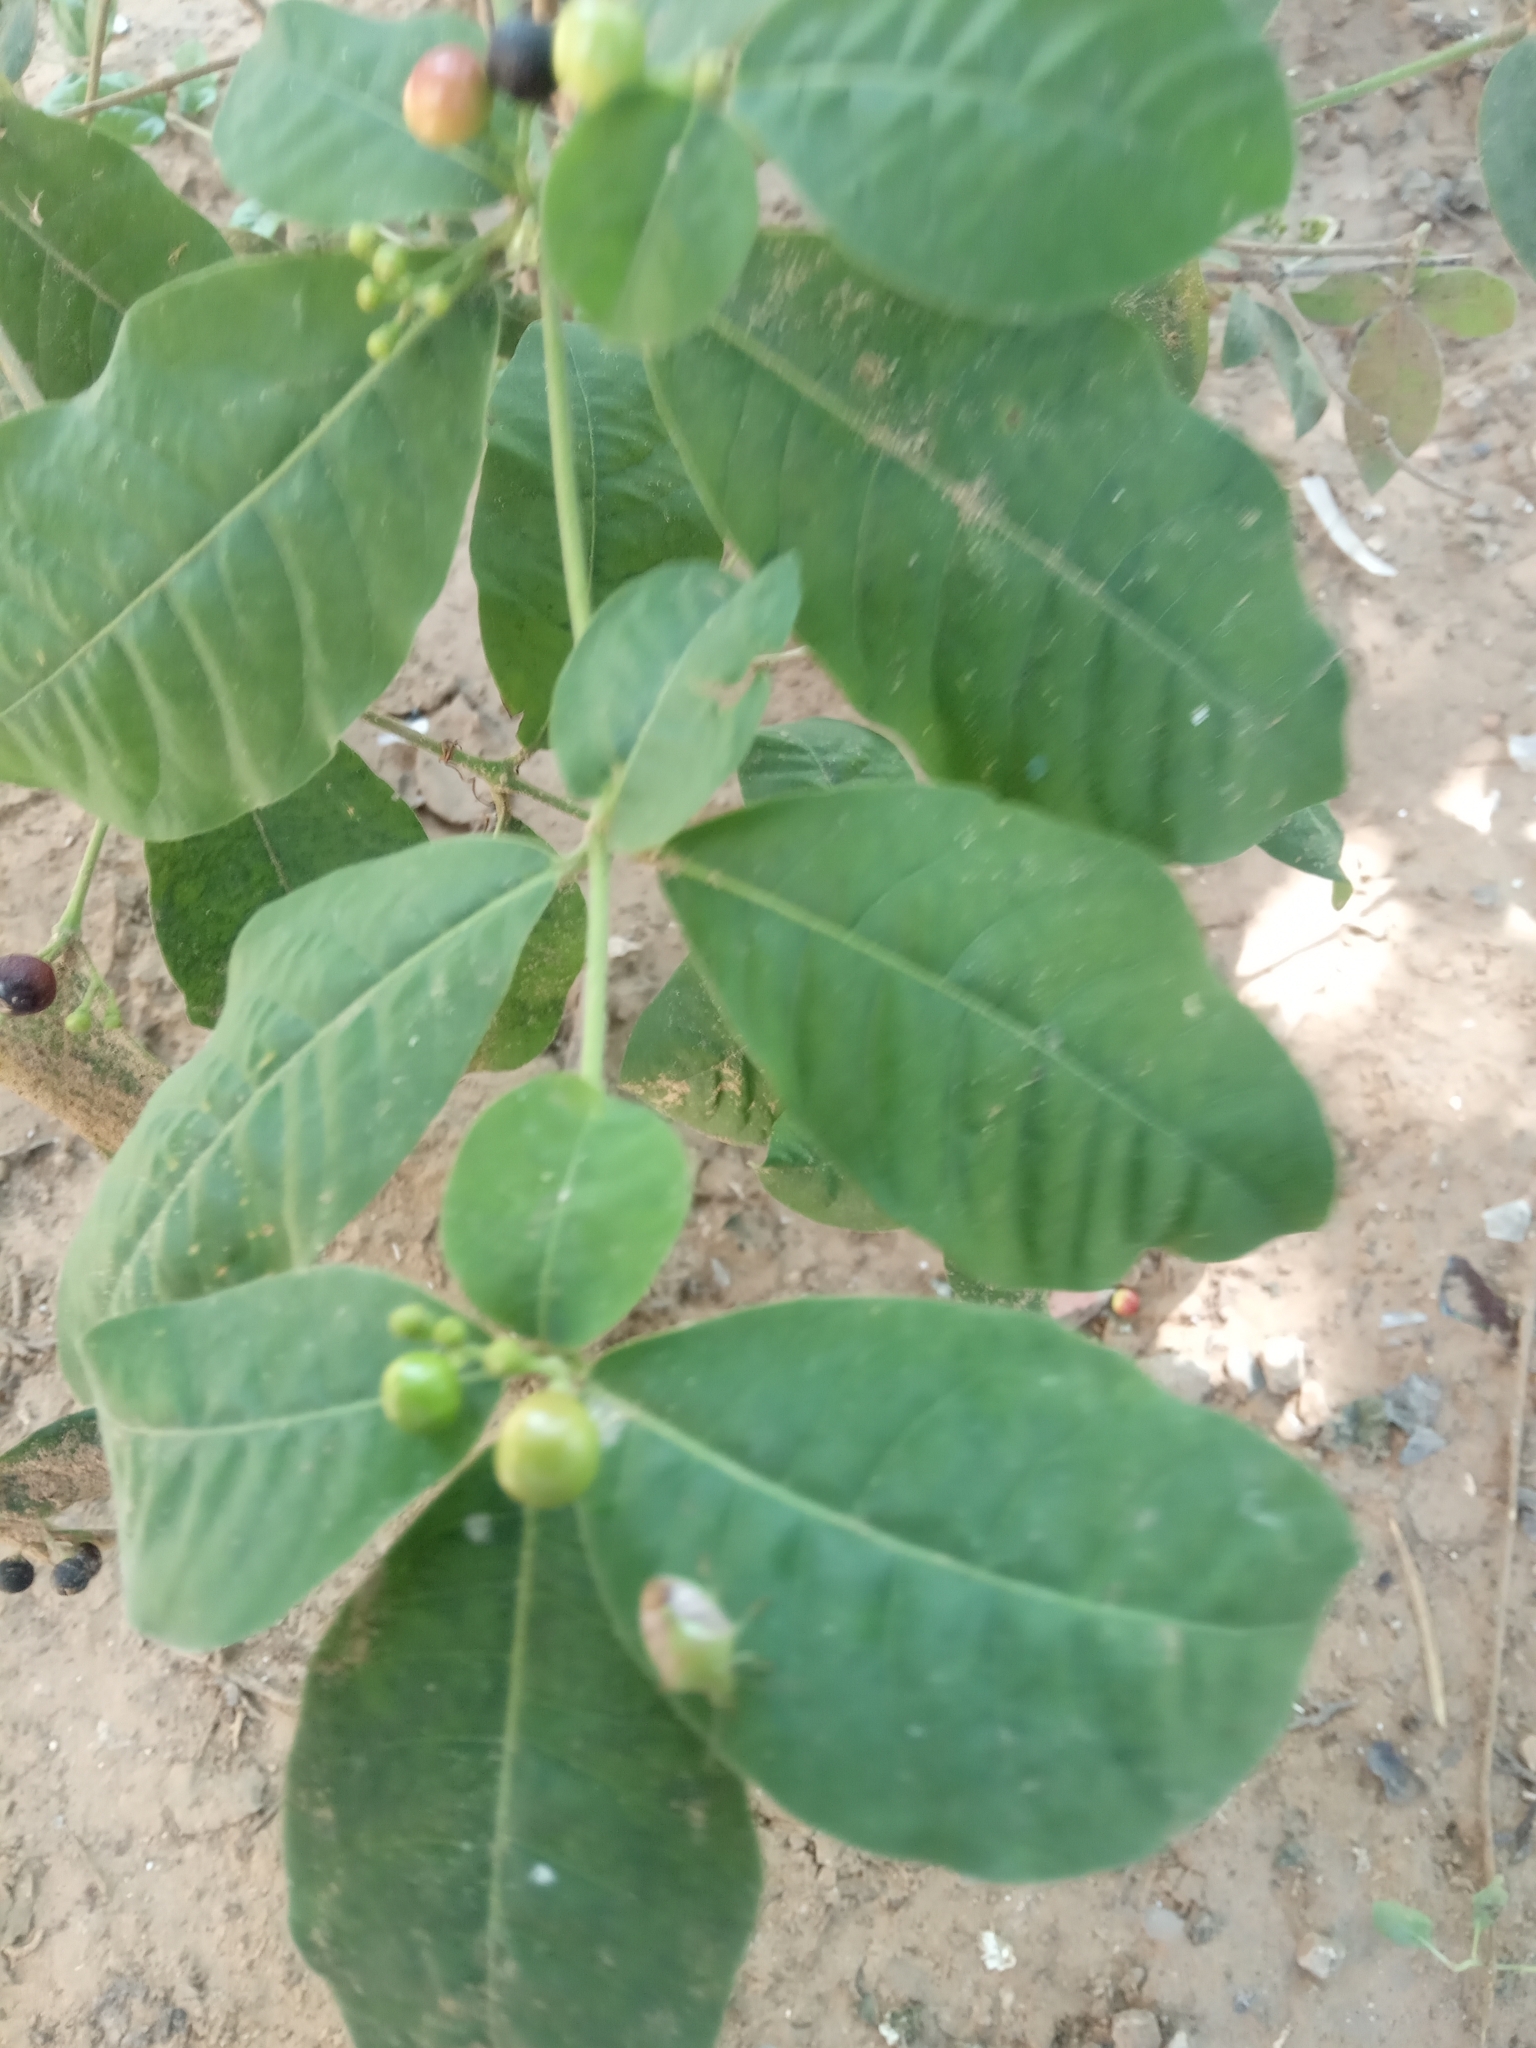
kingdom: Plantae
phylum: Tracheophyta
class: Magnoliopsida
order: Gentianales
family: Apocynaceae
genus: Rauvolfia
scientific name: Rauvolfia tetraphylla
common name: Four-leaf devil-pepper
